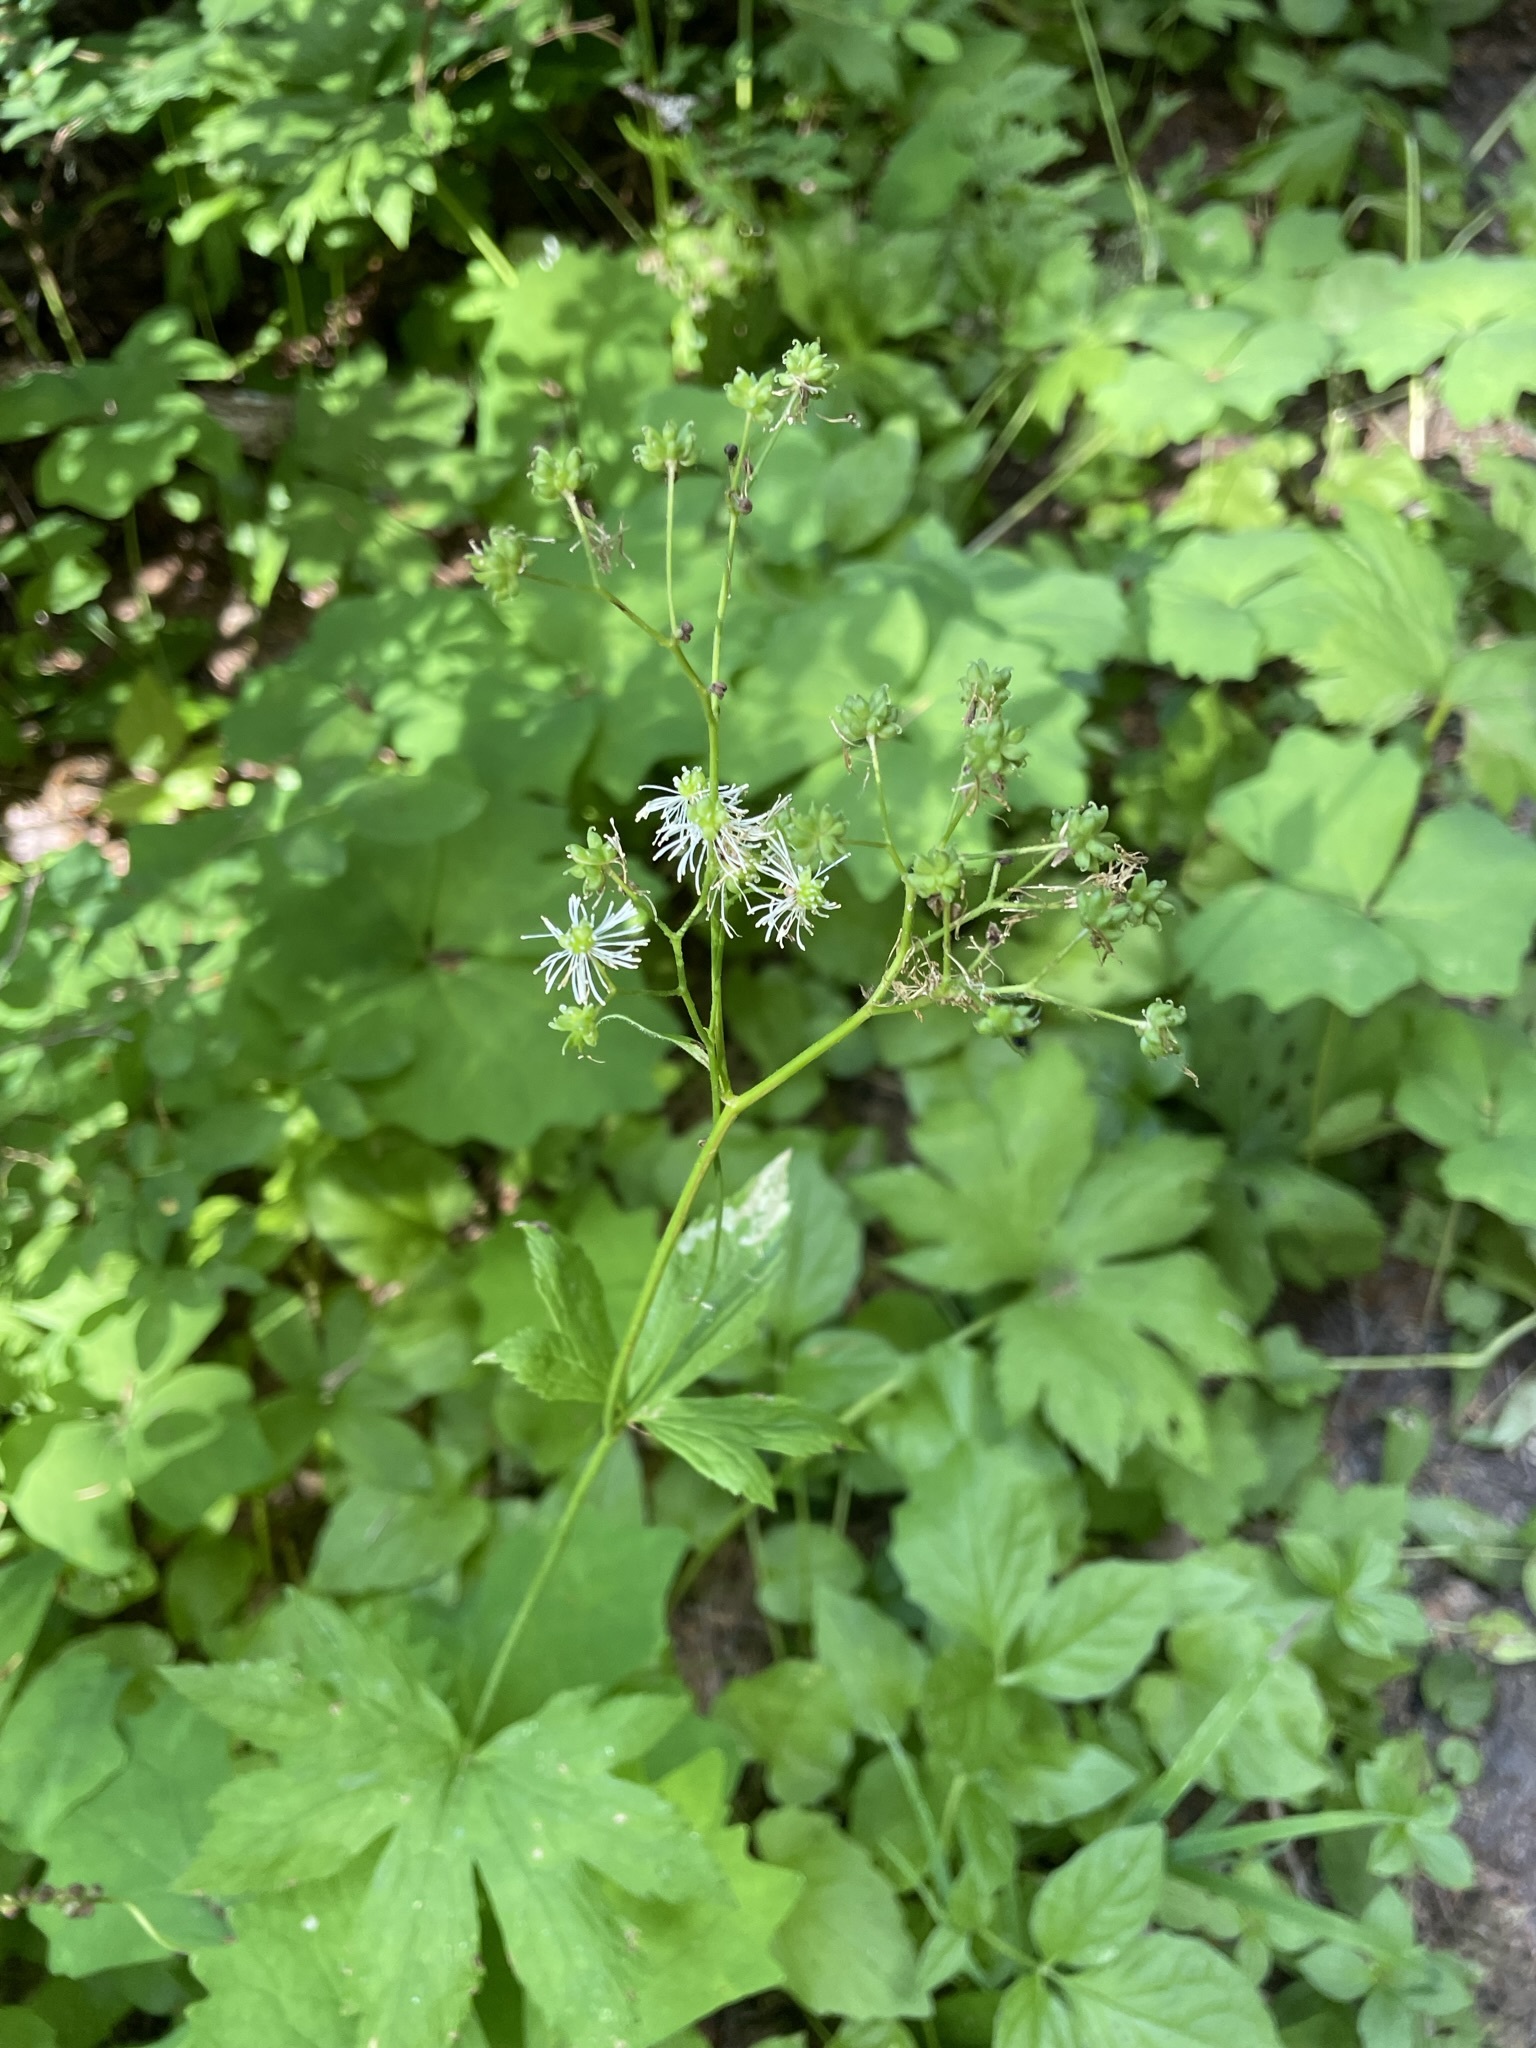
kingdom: Plantae
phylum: Tracheophyta
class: Magnoliopsida
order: Ranunculales
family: Ranunculaceae
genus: Trautvetteria
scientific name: Trautvetteria carolinensis
